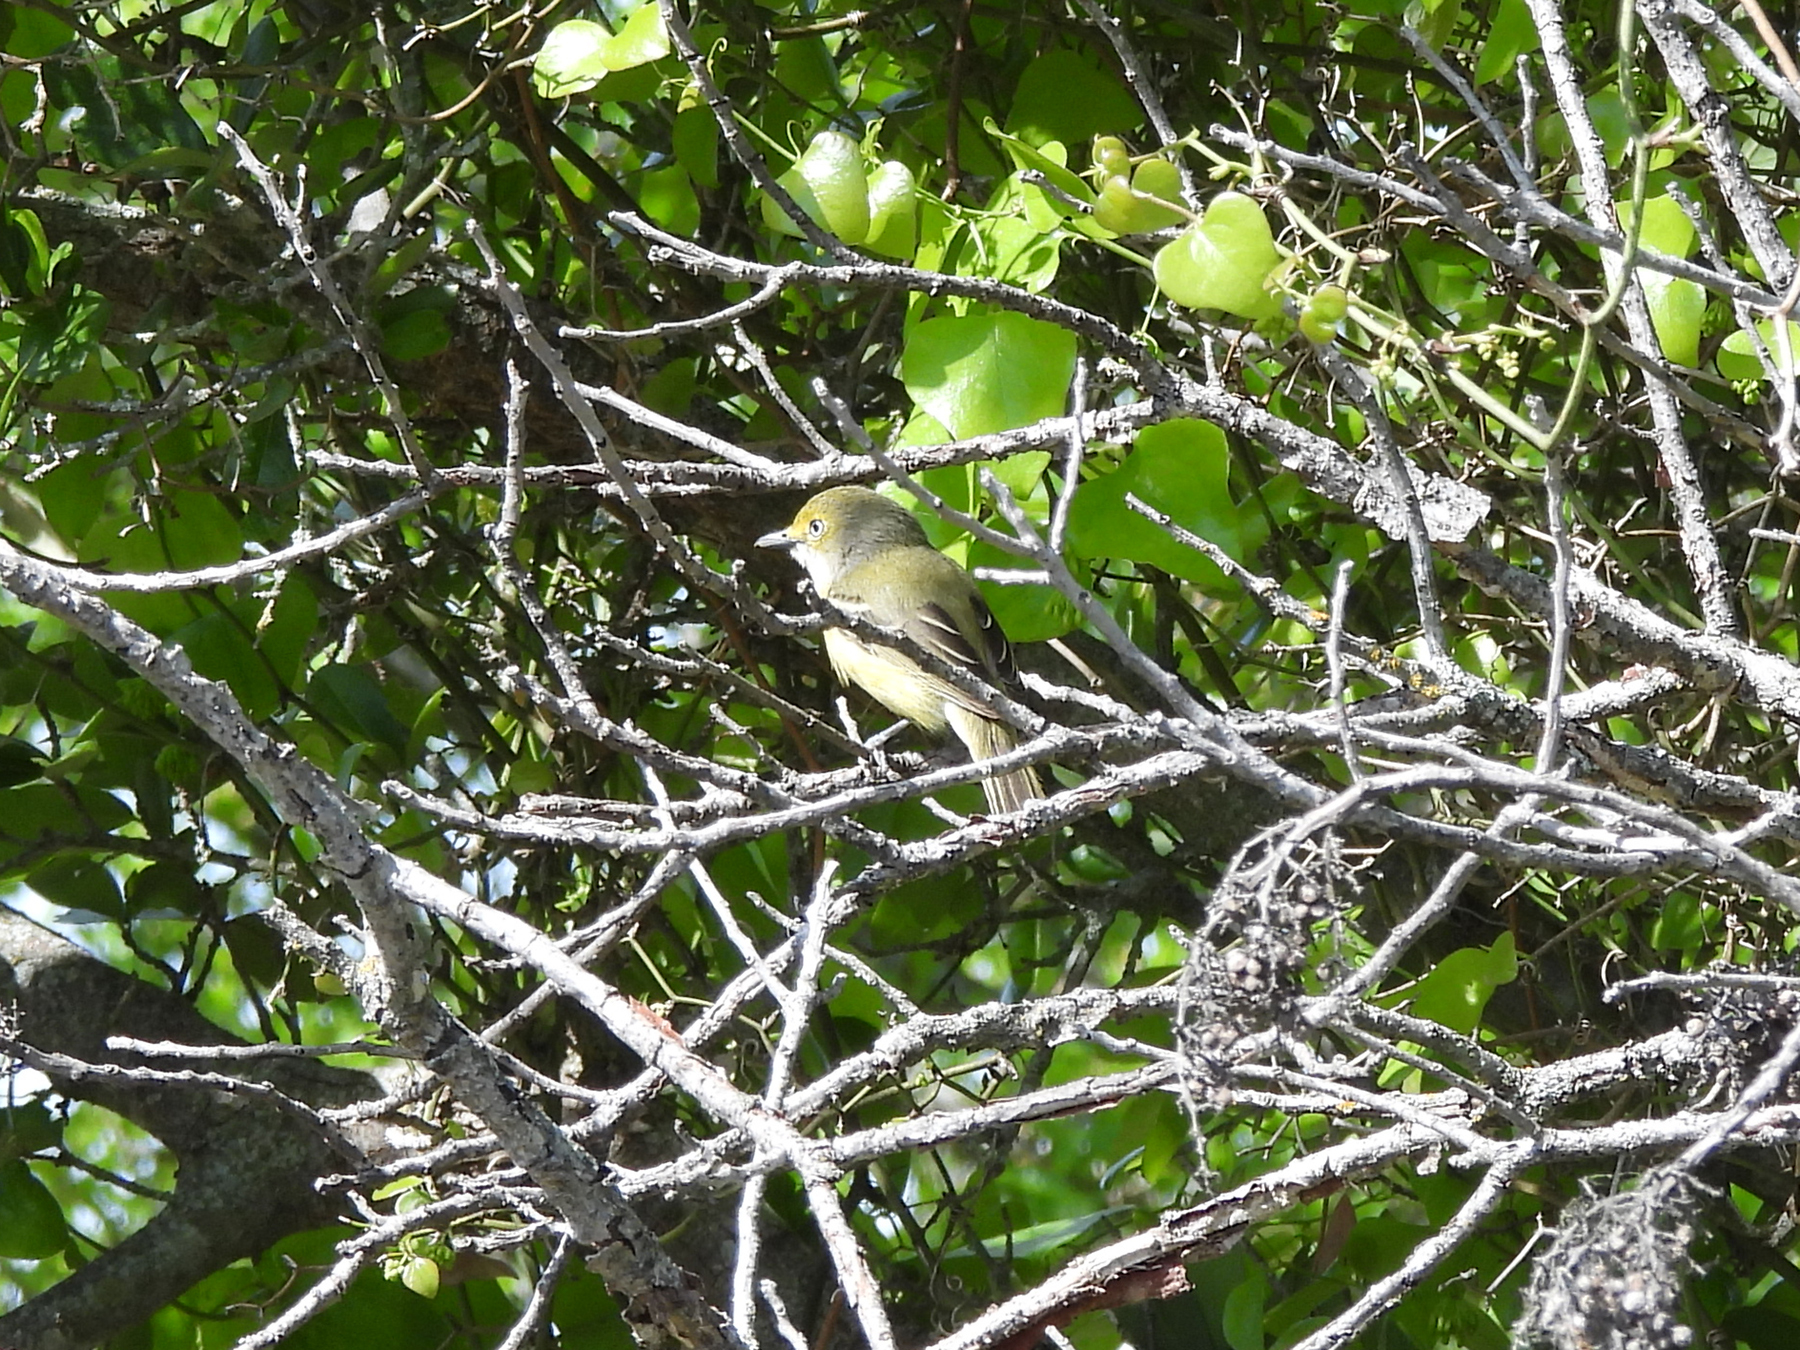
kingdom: Animalia
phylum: Chordata
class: Aves
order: Passeriformes
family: Vireonidae
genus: Vireo
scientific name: Vireo griseus
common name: White-eyed vireo
